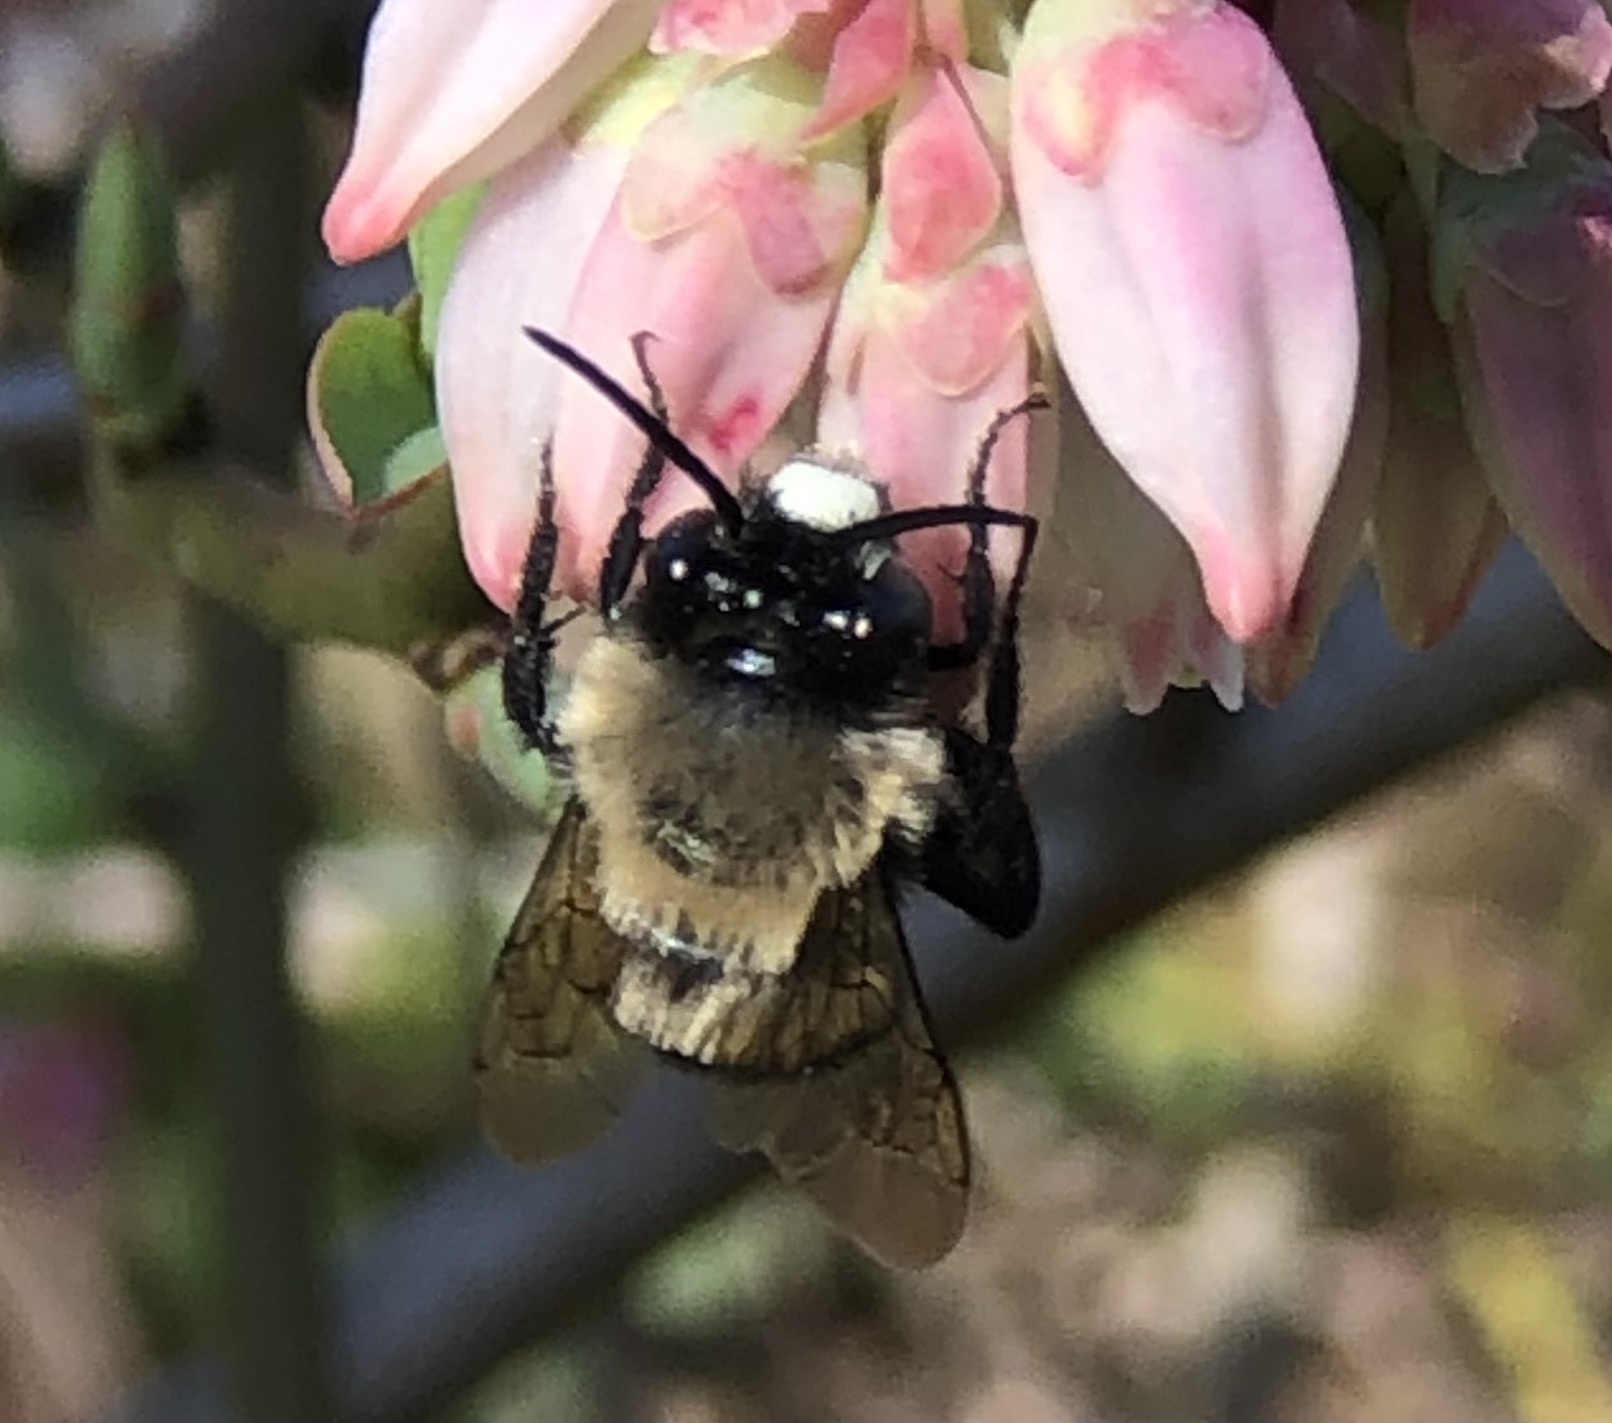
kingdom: Animalia
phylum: Arthropoda
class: Insecta
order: Hymenoptera
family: Apidae
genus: Habropoda
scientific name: Habropoda laboriosa
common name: Southeastern blueberry bee
